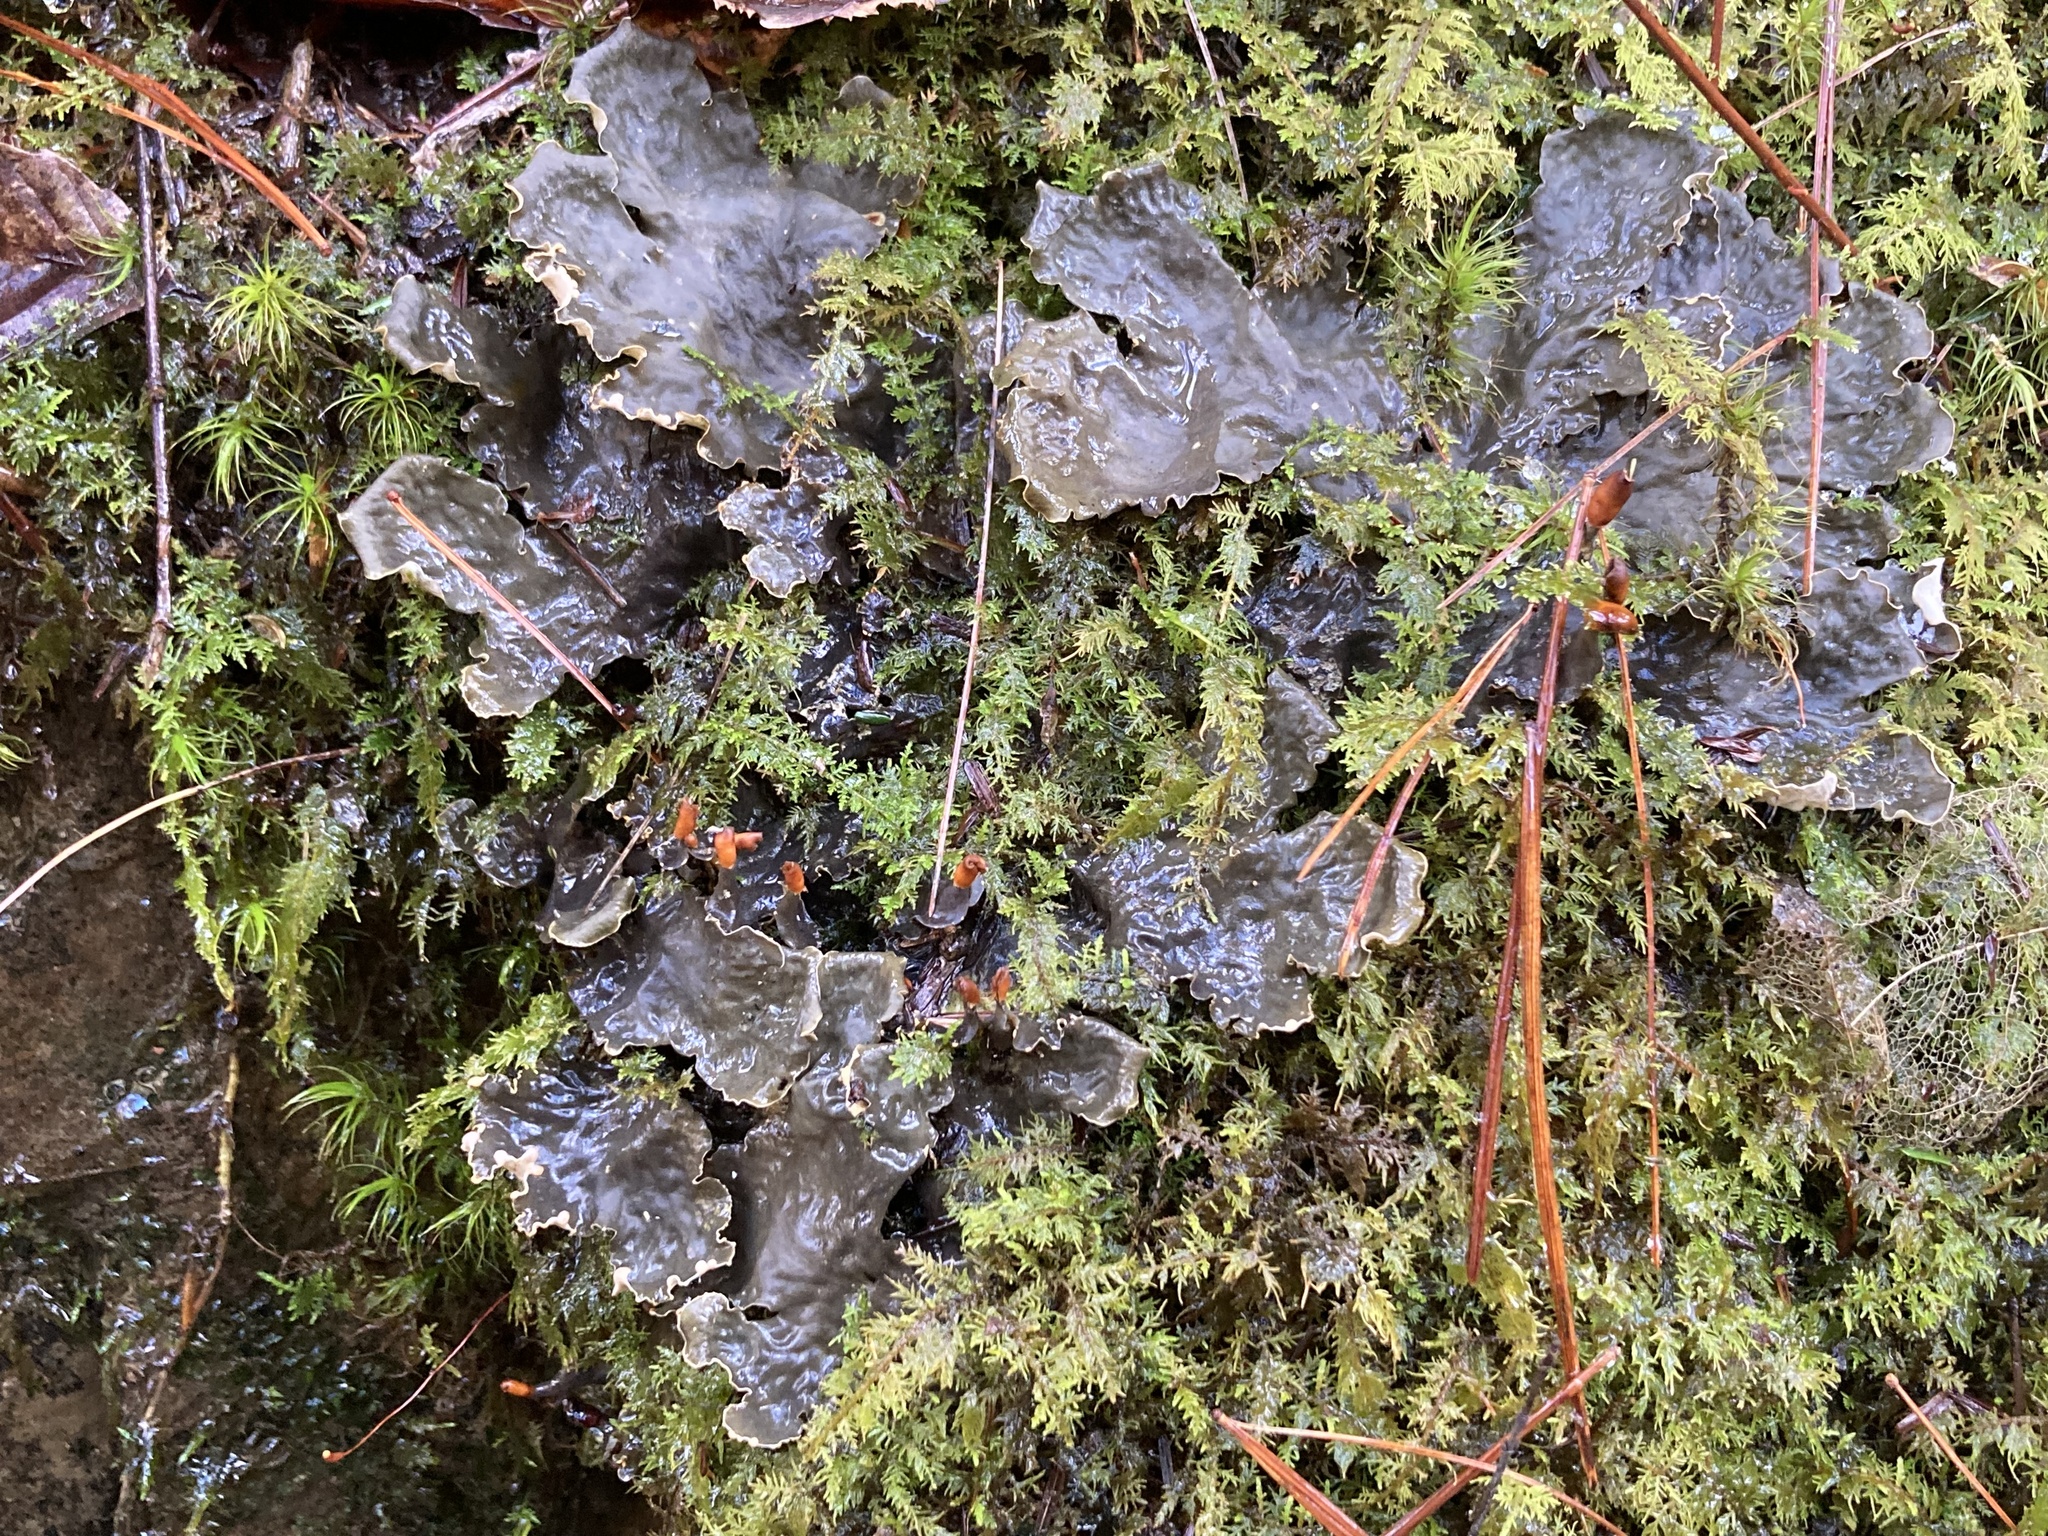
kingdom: Fungi
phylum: Ascomycota
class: Lecanoromycetes
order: Peltigerales
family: Peltigeraceae
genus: Peltigera
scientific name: Peltigera polydactylon
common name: Many-fruited pelt lichen
